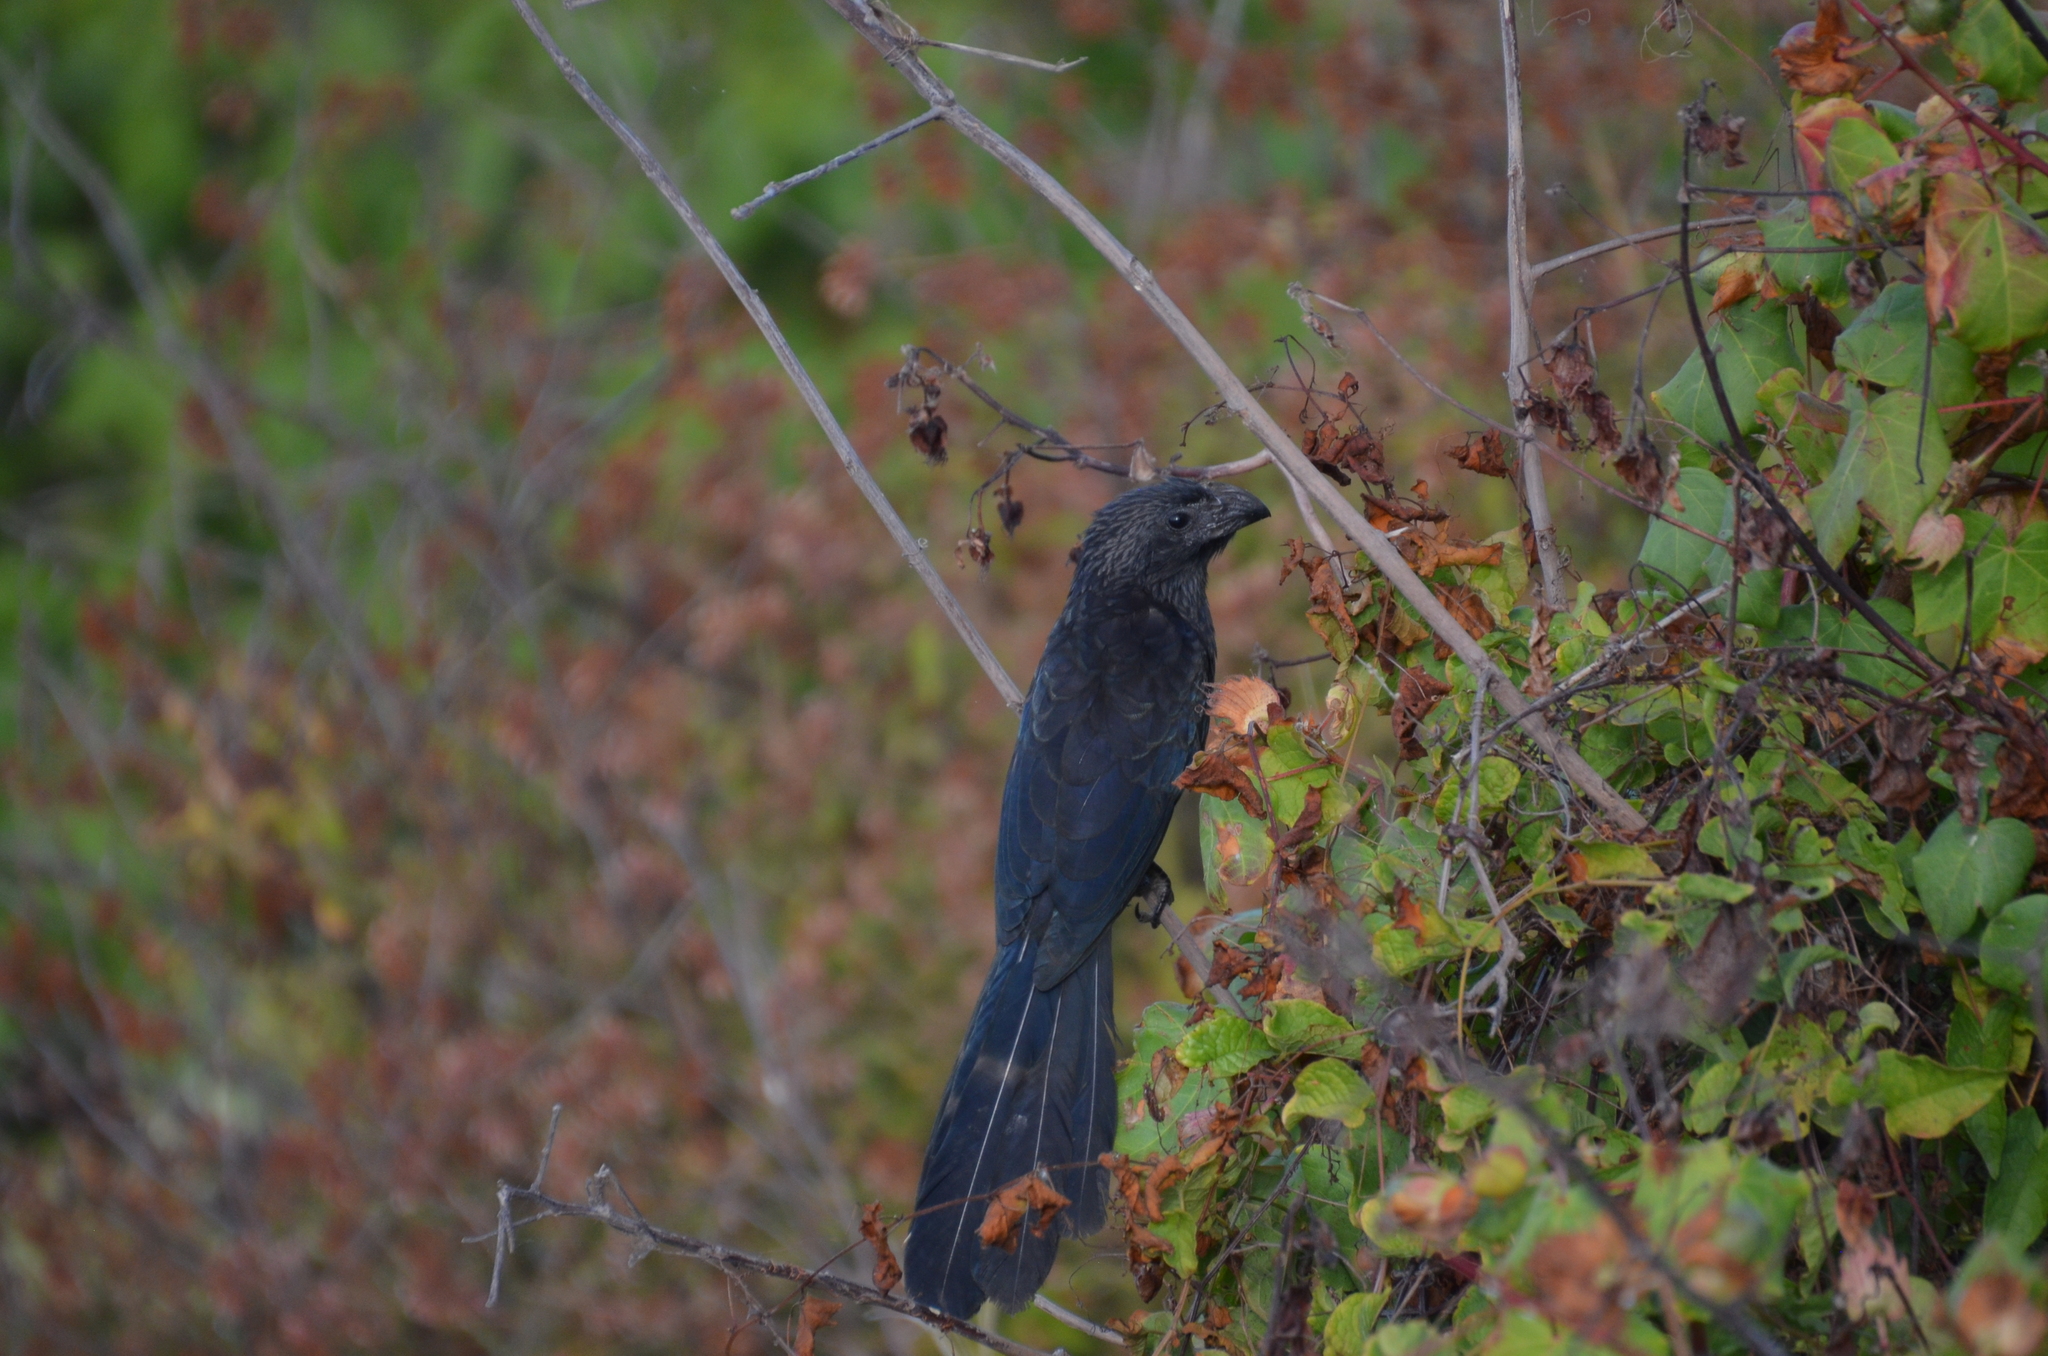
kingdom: Animalia
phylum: Chordata
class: Aves
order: Cuculiformes
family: Cuculidae
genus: Crotophaga
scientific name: Crotophaga sulcirostris
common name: Groove-billed ani
